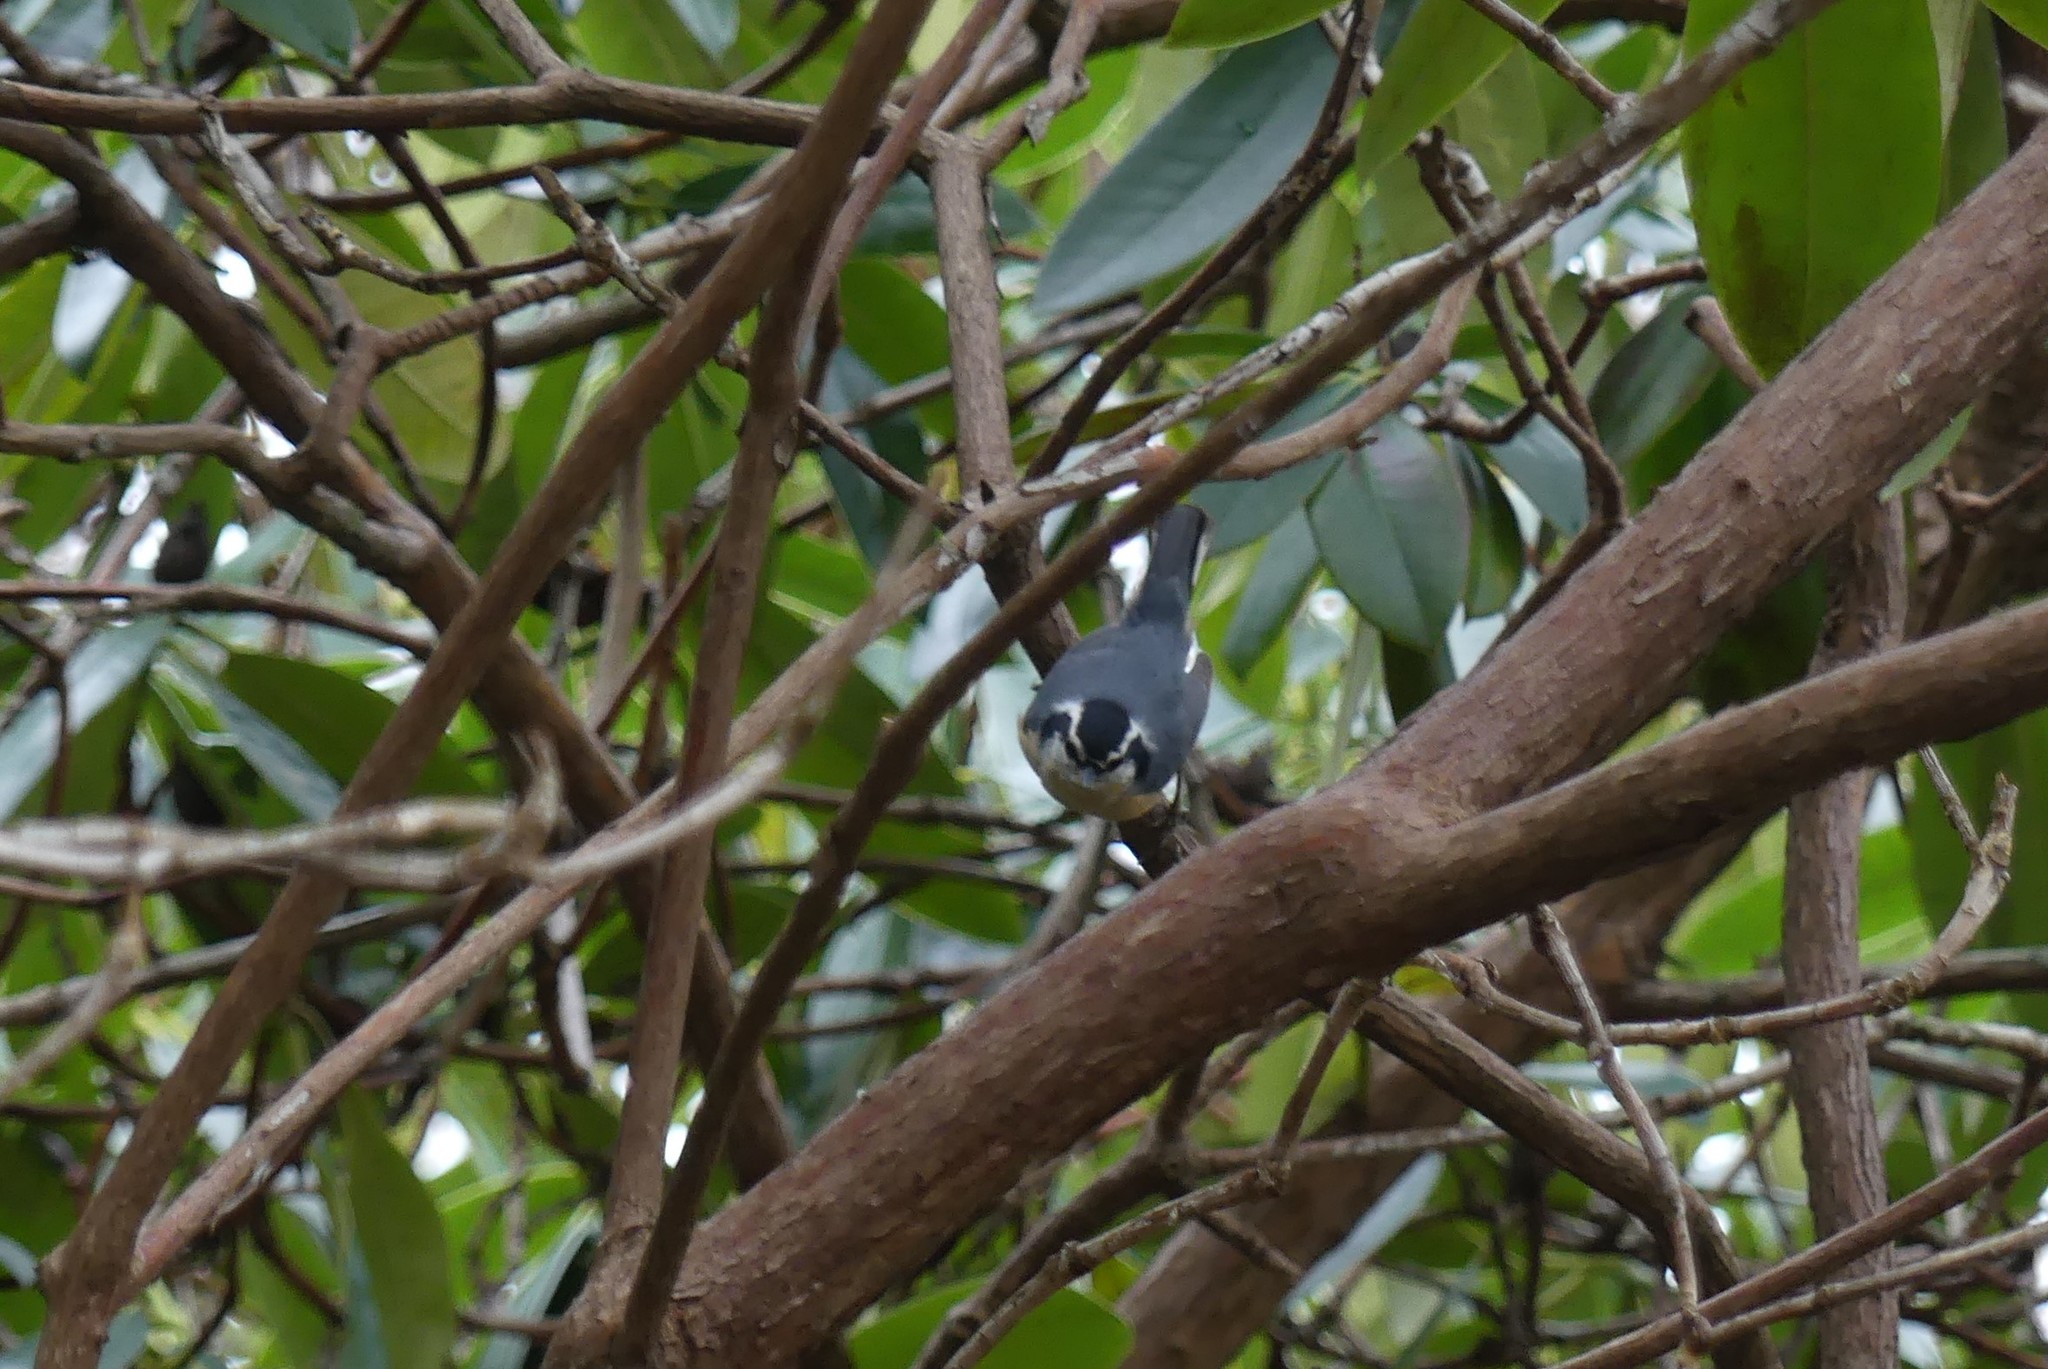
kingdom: Animalia
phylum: Chordata
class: Aves
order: Passeriformes
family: Sittidae
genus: Sitta
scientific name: Sitta canadensis
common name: Red-breasted nuthatch
